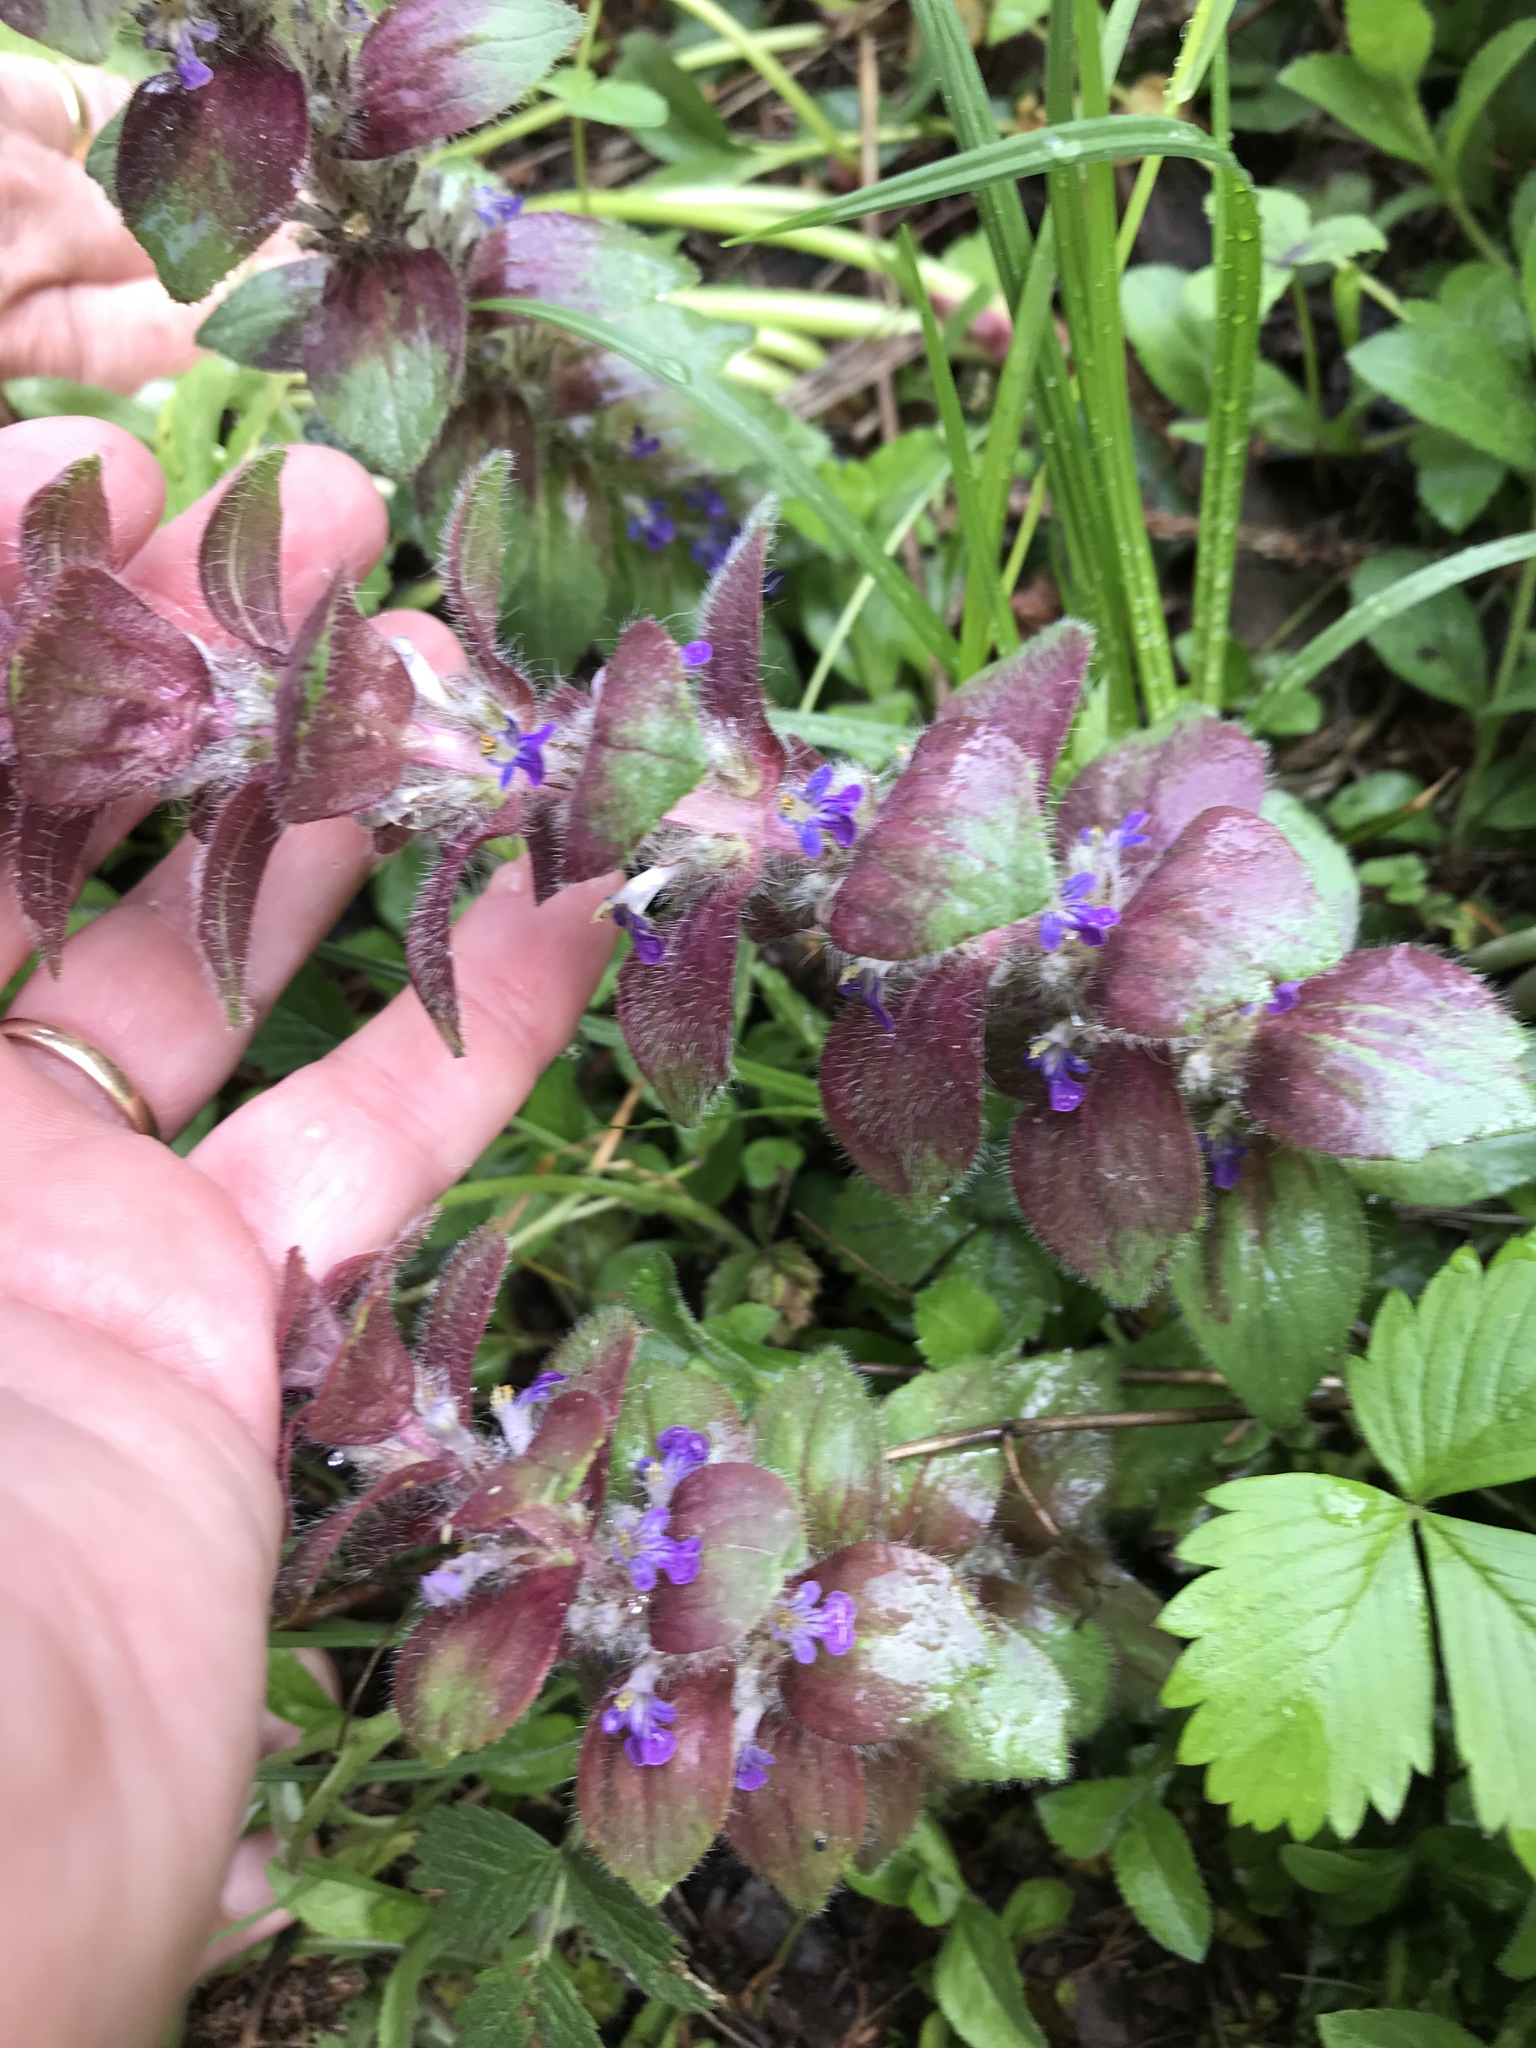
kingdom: Plantae
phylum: Tracheophyta
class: Magnoliopsida
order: Lamiales
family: Lamiaceae
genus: Ajuga
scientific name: Ajuga pyramidalis
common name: Pyramid bugle
